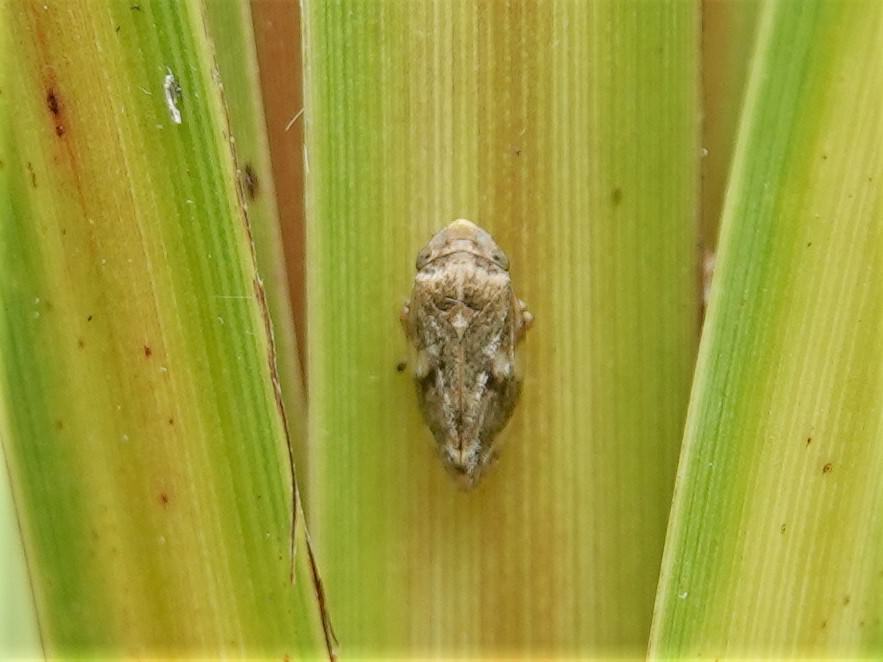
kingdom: Animalia
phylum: Arthropoda
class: Insecta
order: Hemiptera
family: Aphrophoridae
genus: Philaenus
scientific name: Philaenus spumarius
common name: Meadow spittlebug
